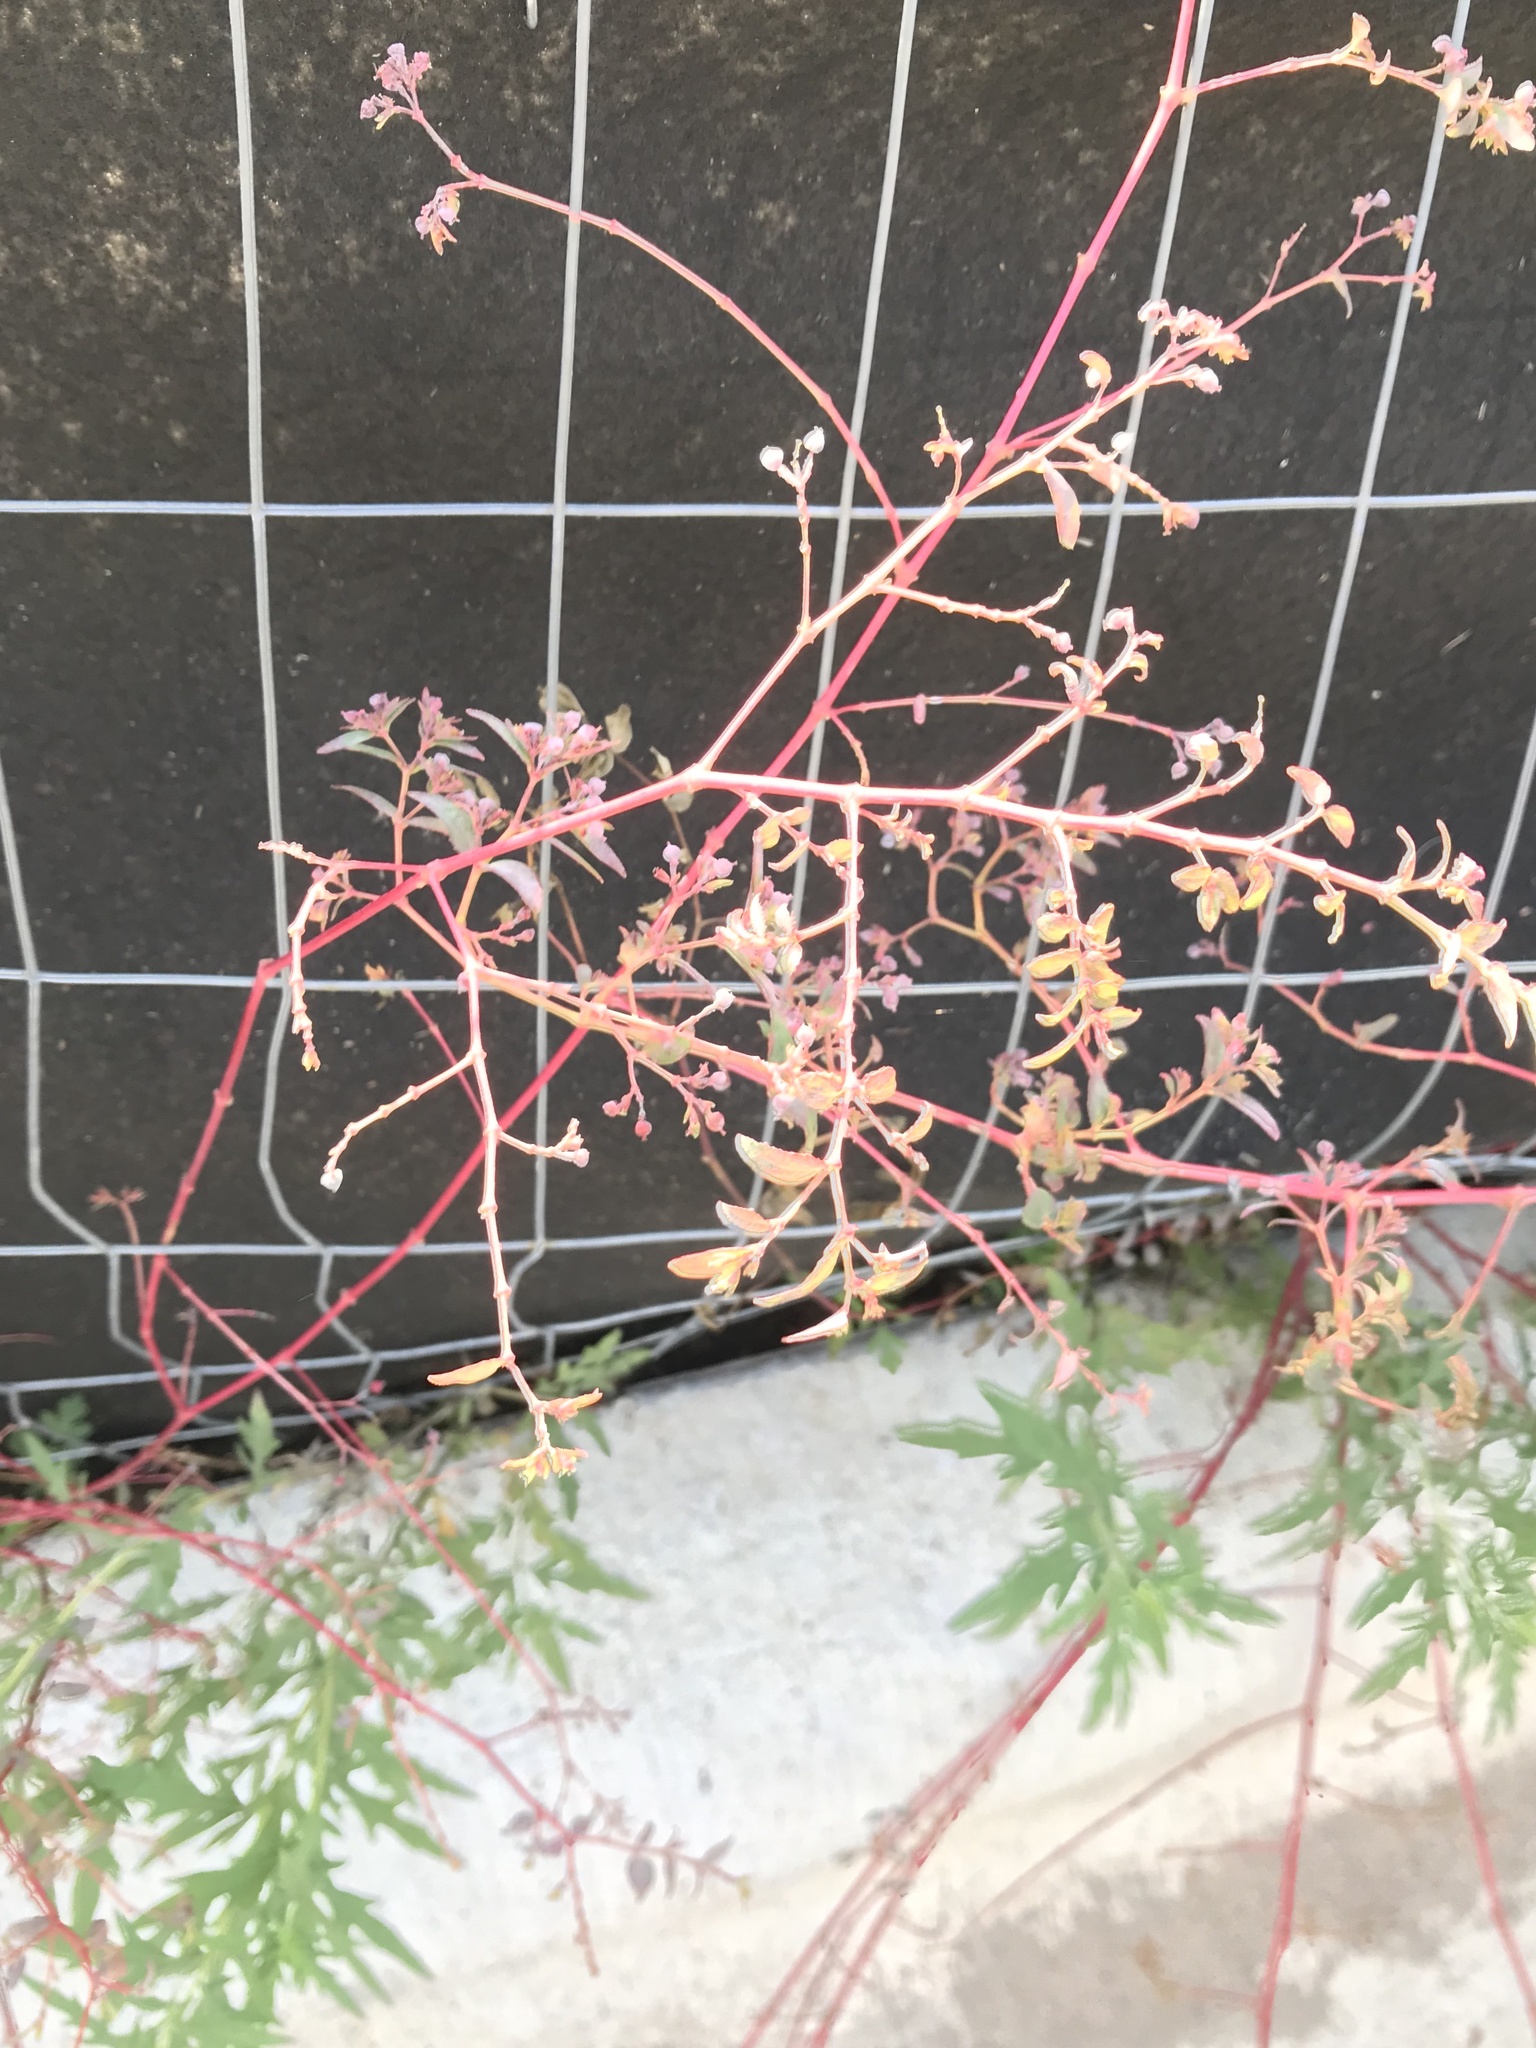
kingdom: Plantae
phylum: Tracheophyta
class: Magnoliopsida
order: Malpighiales
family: Euphorbiaceae
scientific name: Euphorbiaceae
